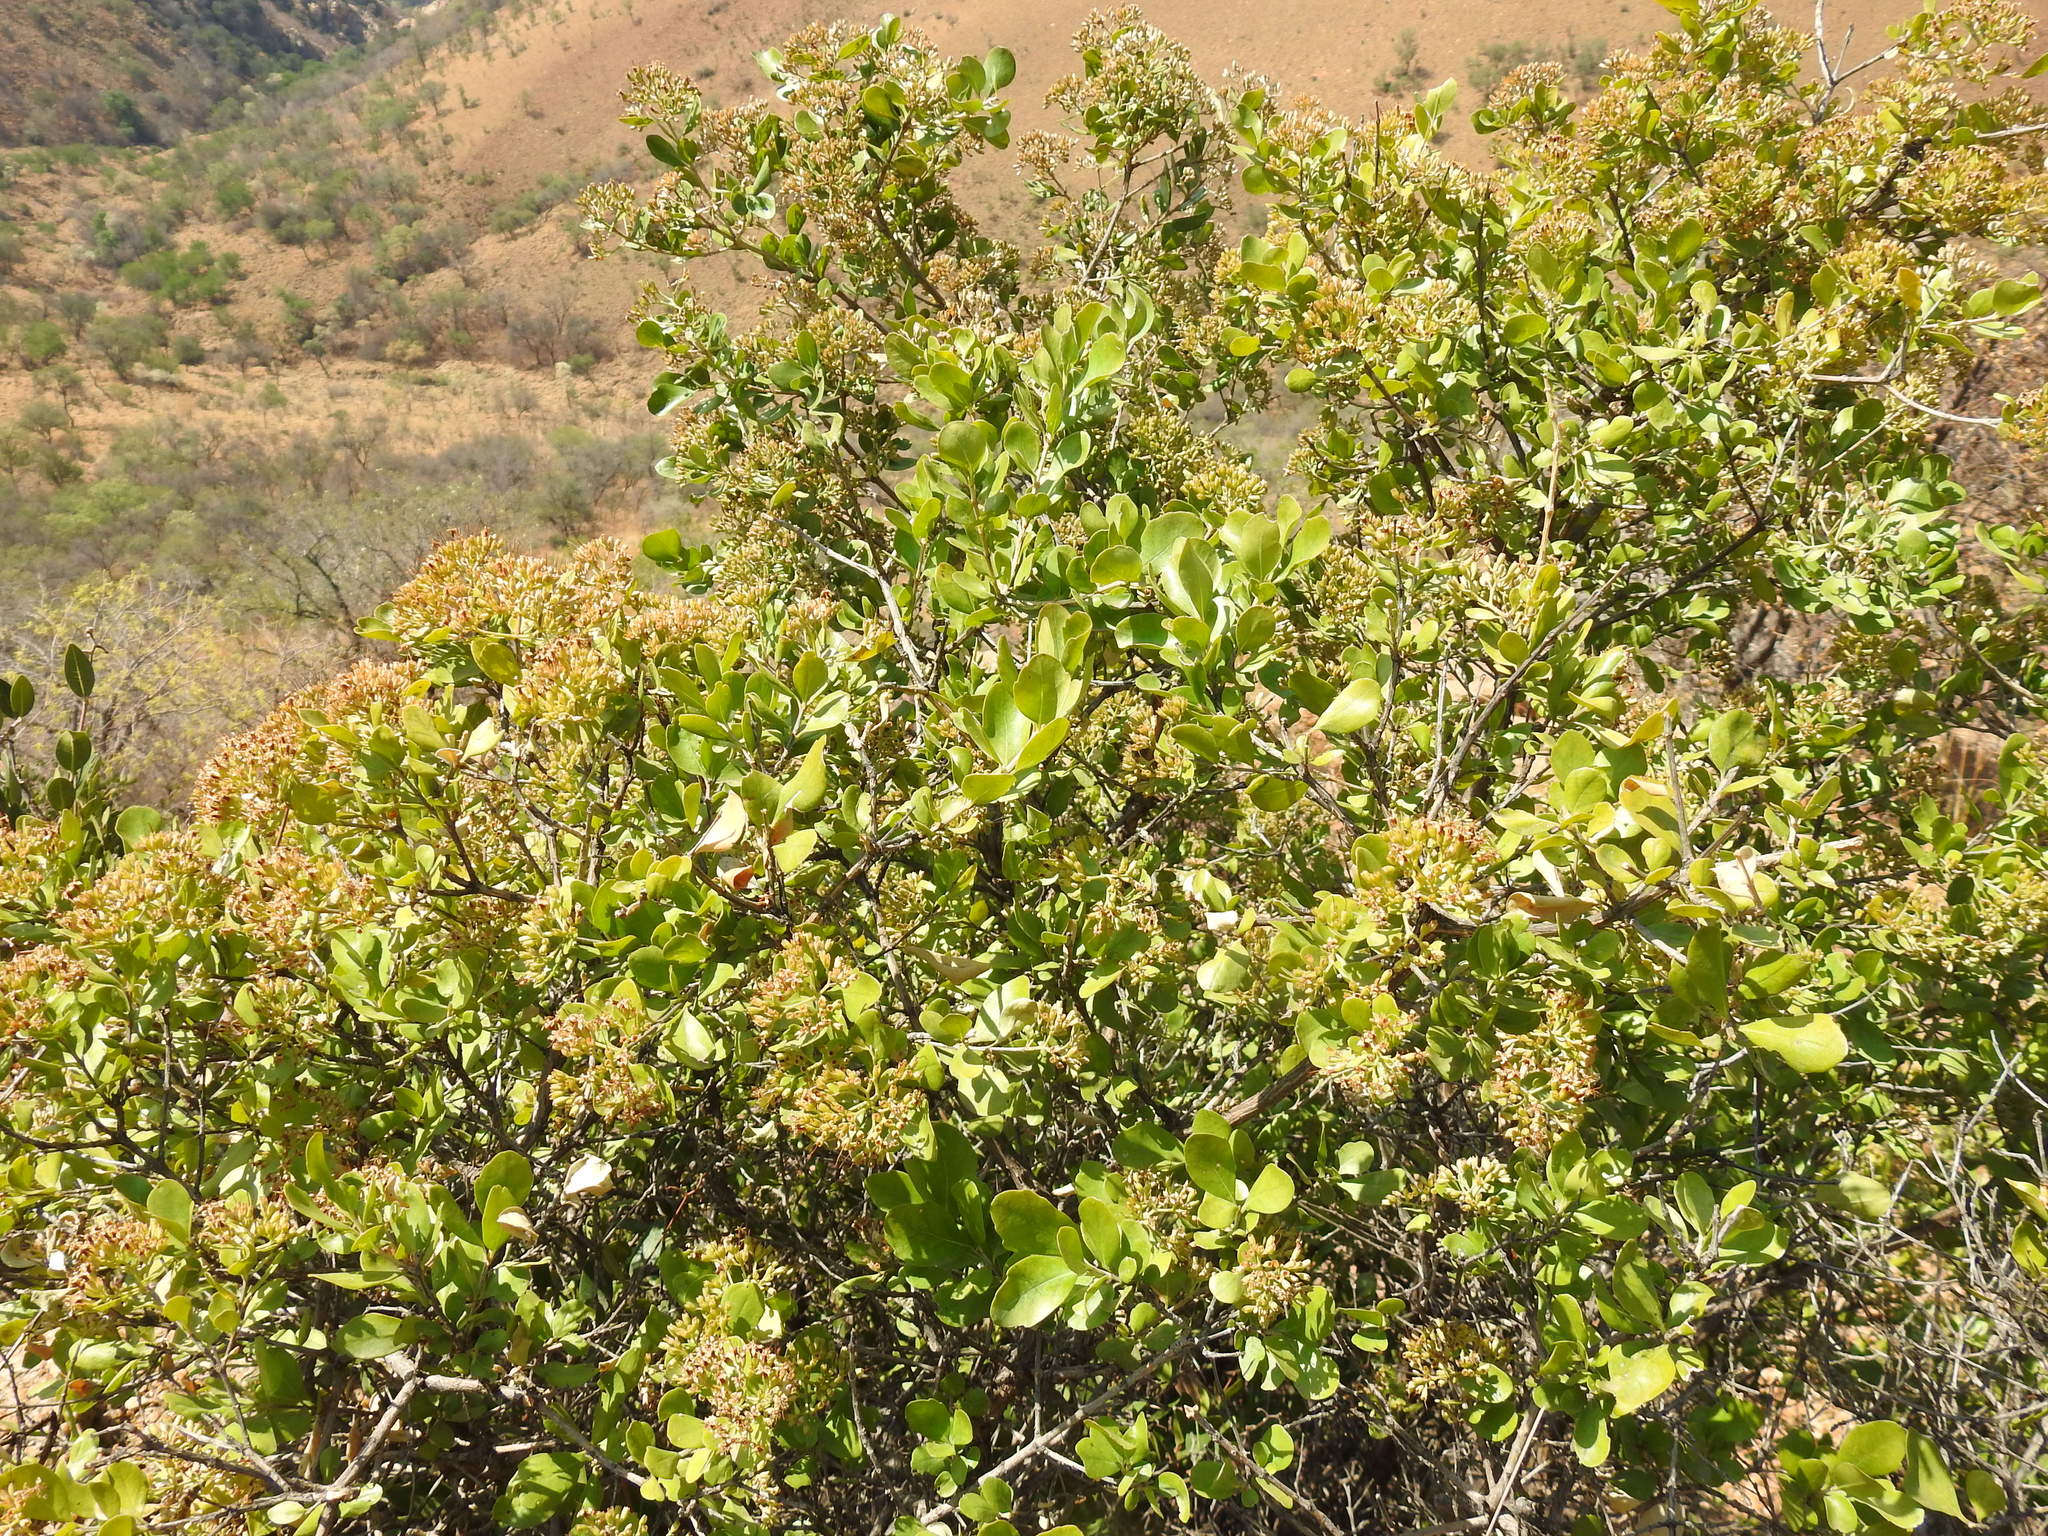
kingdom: Plantae
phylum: Tracheophyta
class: Magnoliopsida
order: Lamiales
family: Stilbaceae
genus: Nuxia
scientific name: Nuxia congesta
